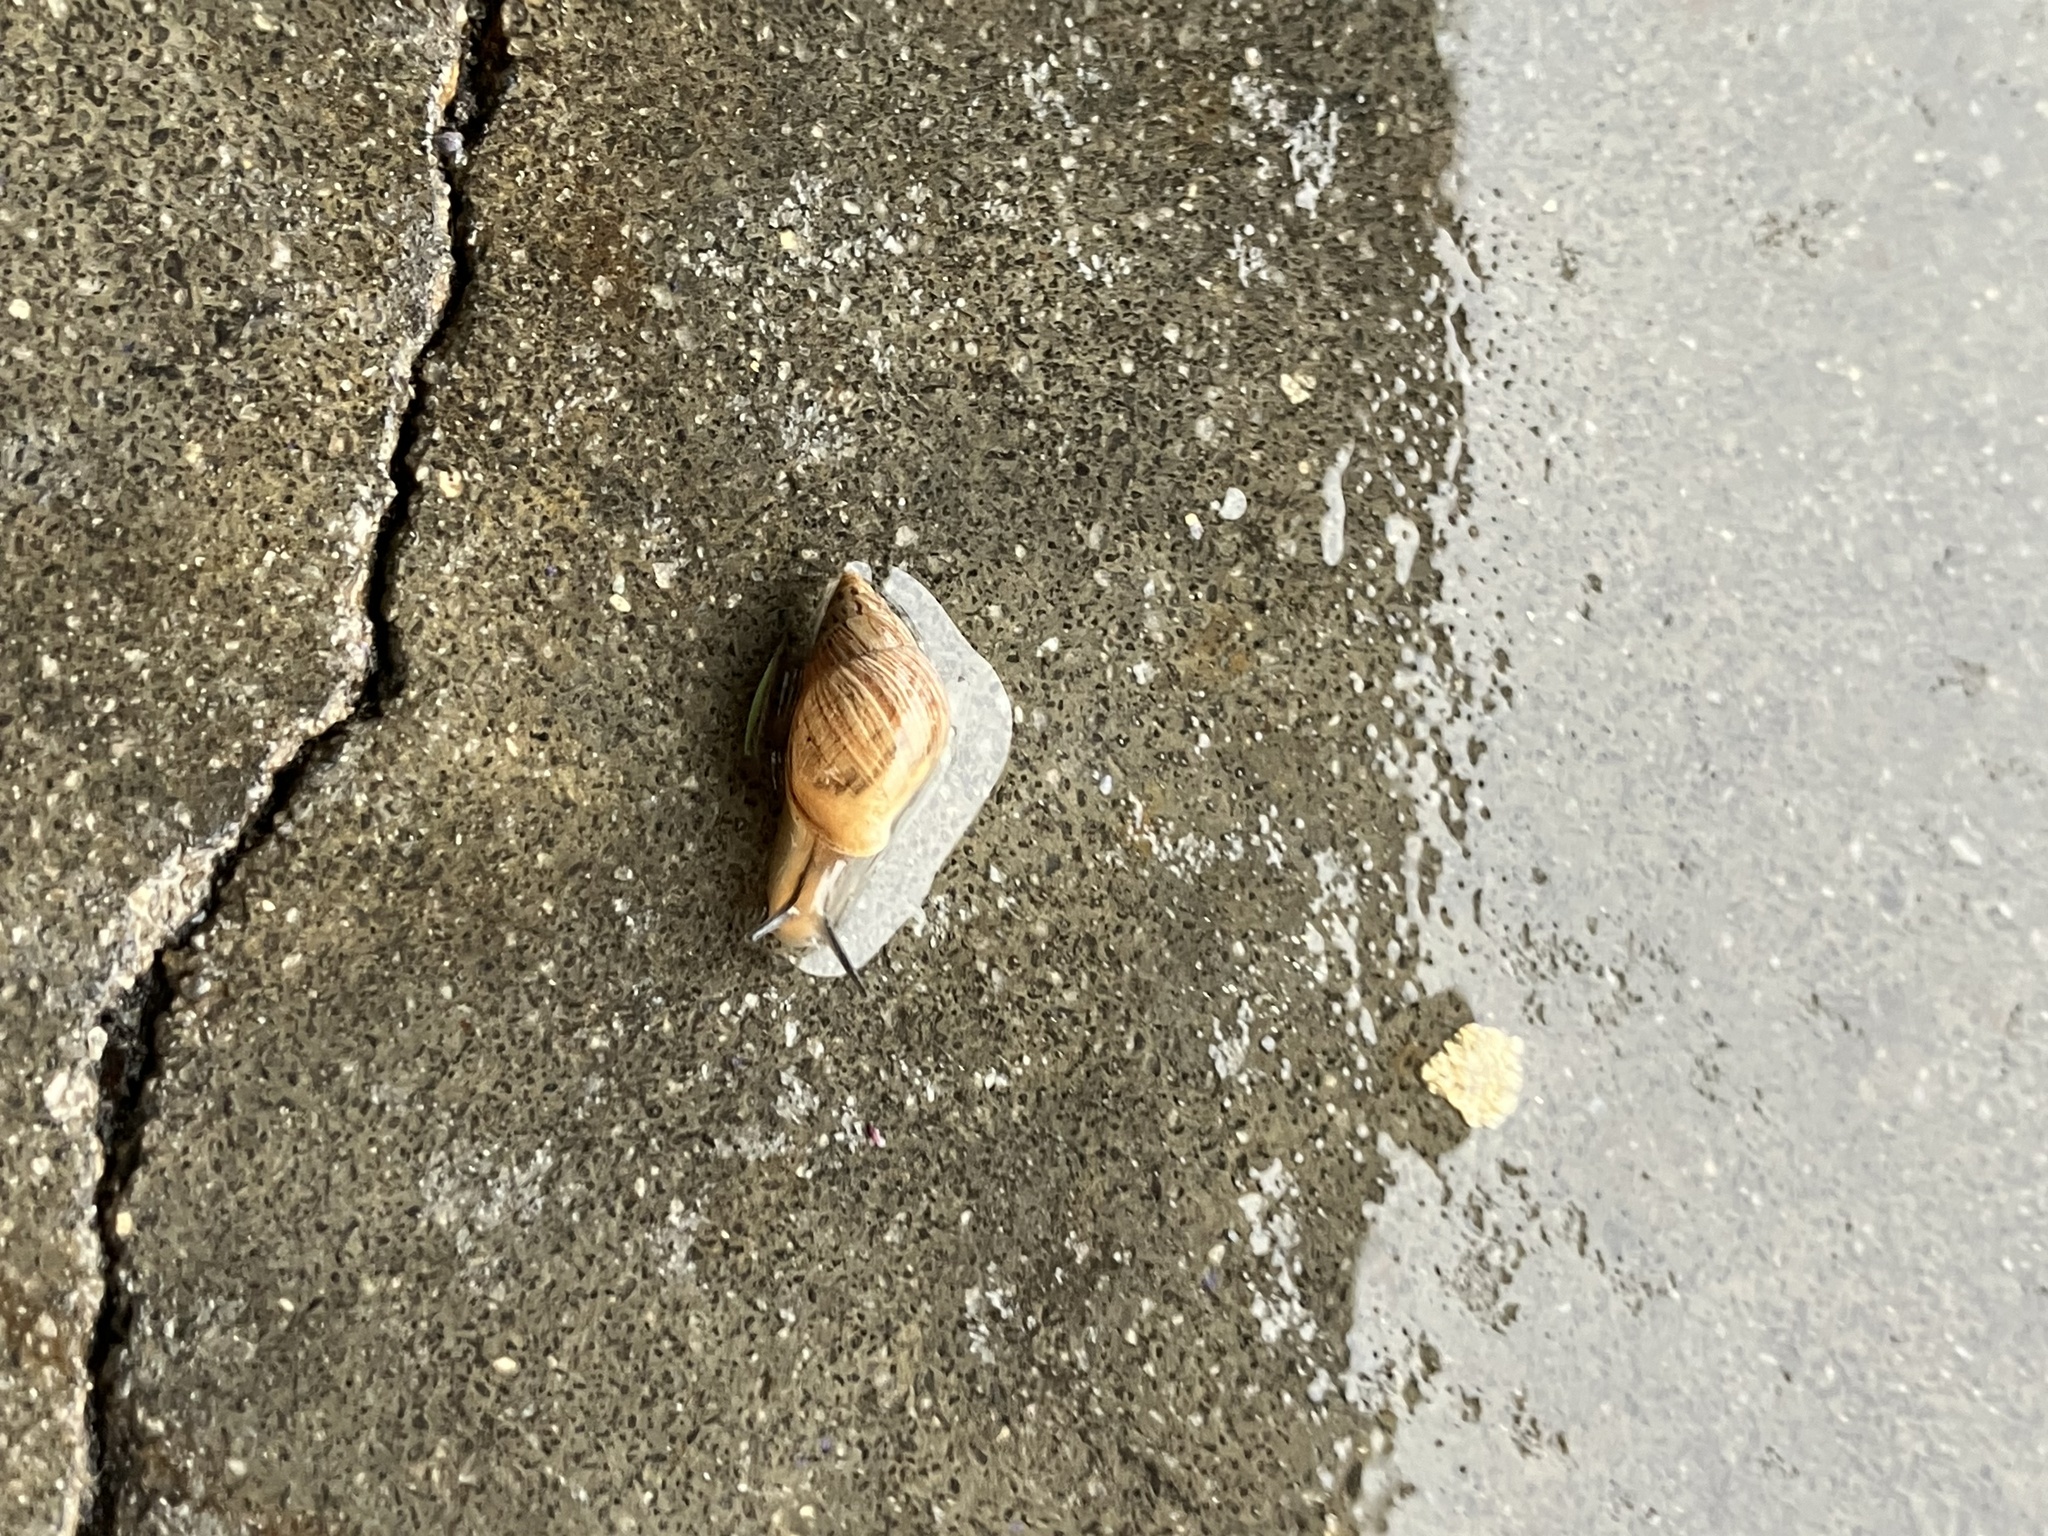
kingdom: Animalia
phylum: Mollusca
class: Gastropoda
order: Stylommatophora
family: Bulimulidae
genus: Bulimulus
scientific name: Bulimulus bonariensis
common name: Snail
